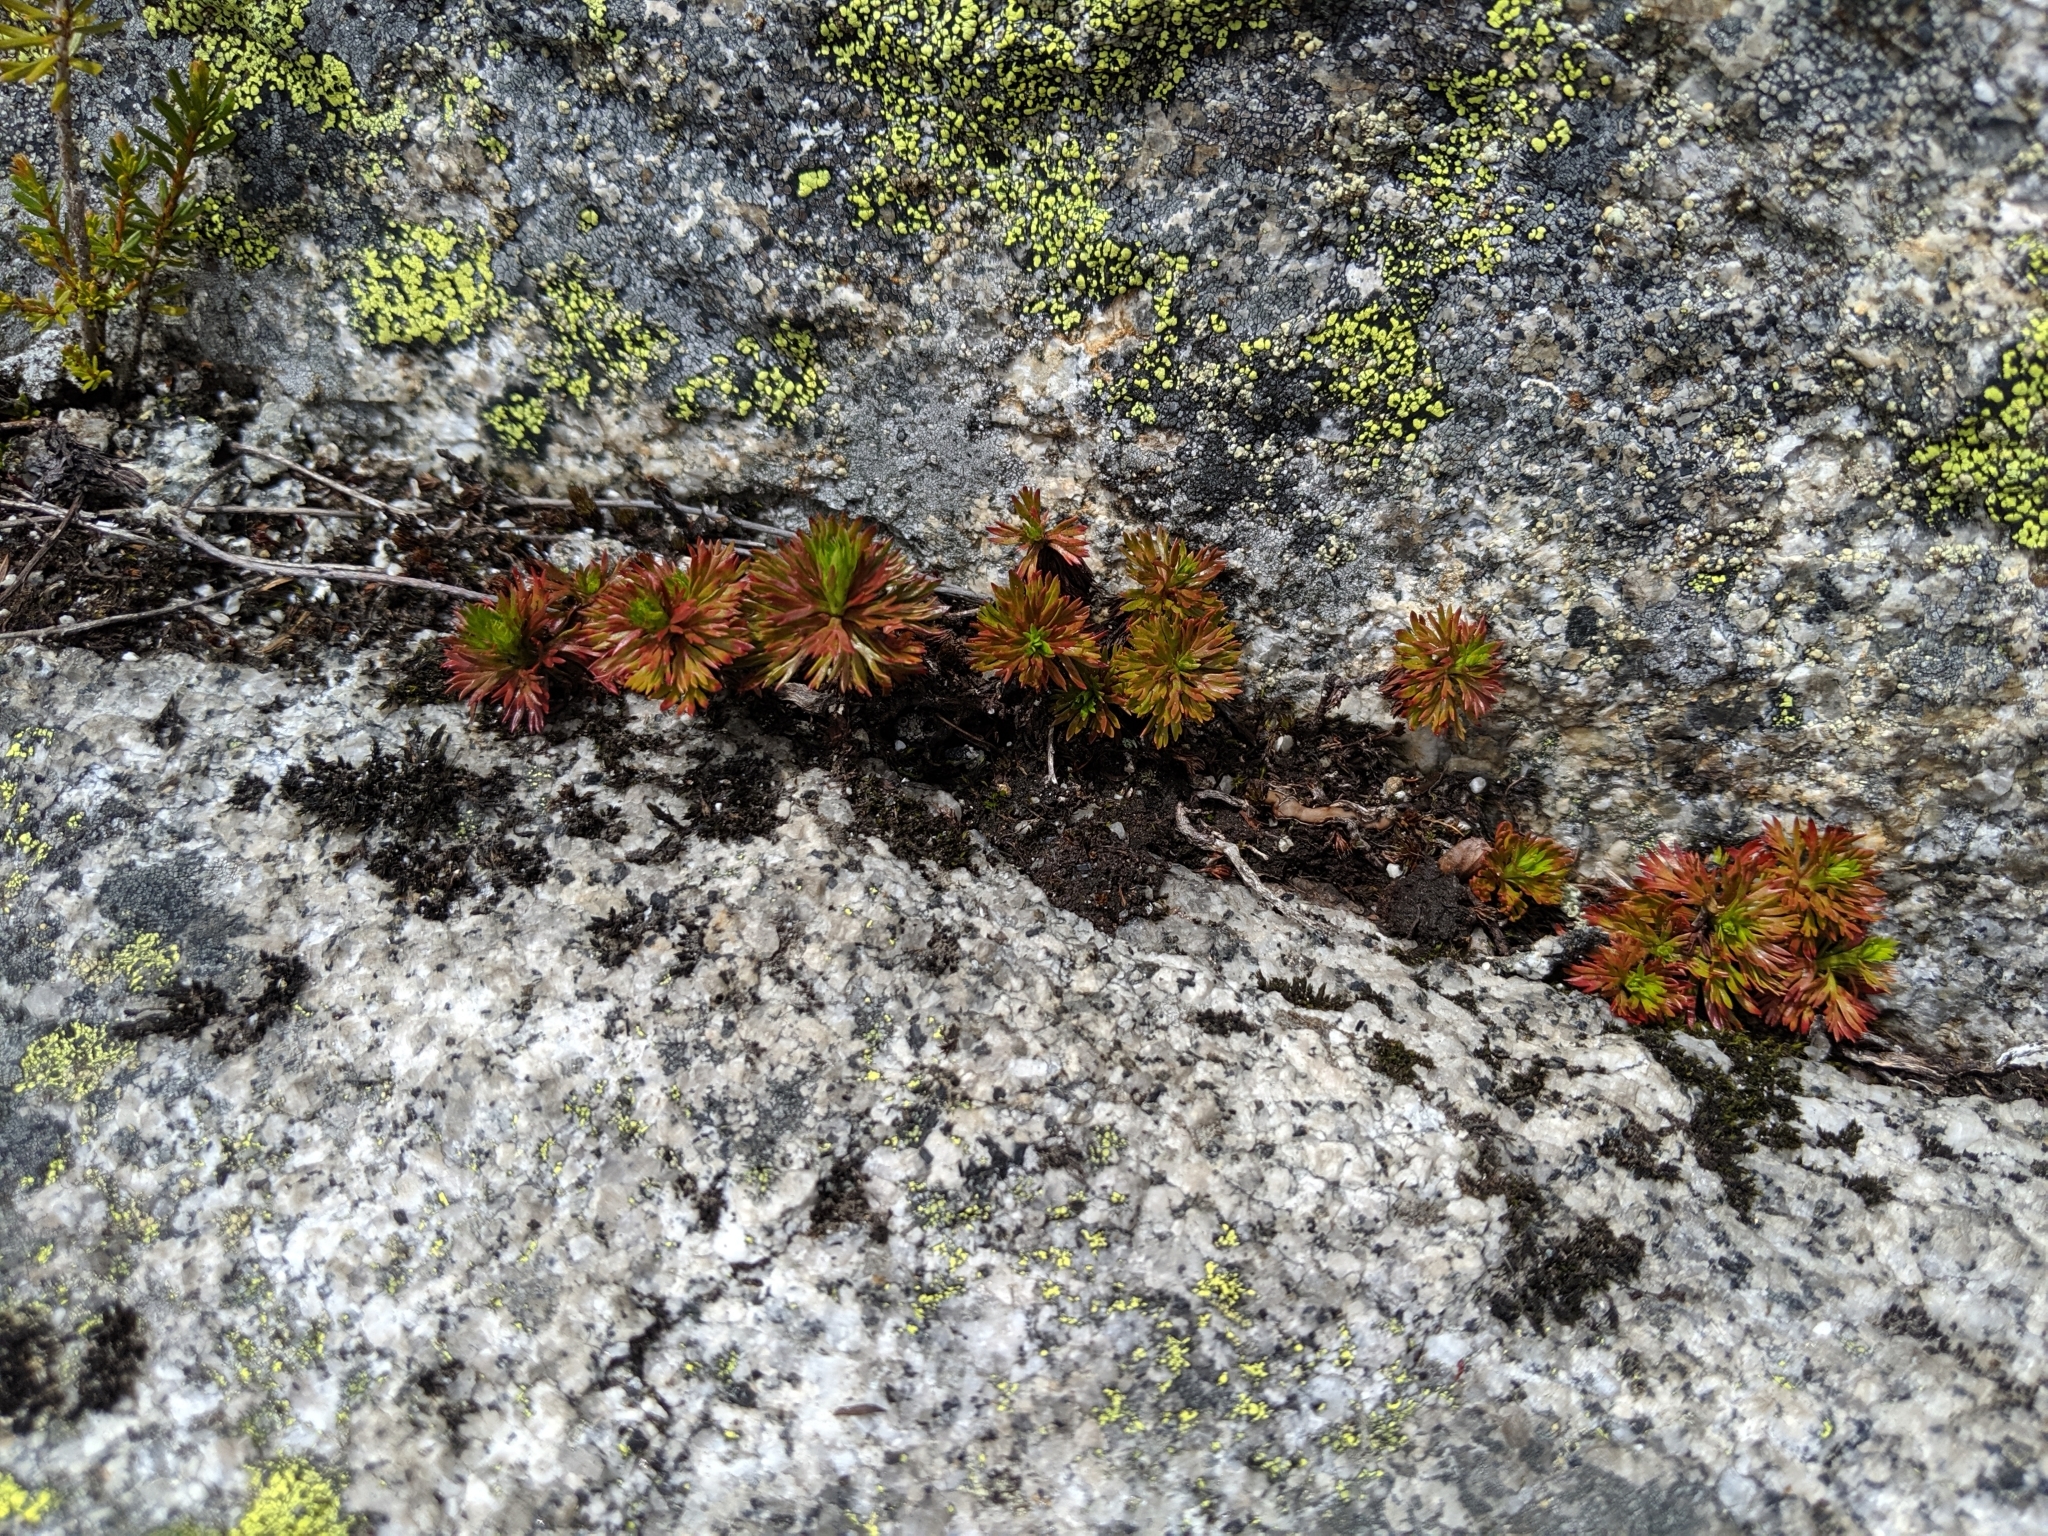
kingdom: Plantae
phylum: Tracheophyta
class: Magnoliopsida
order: Rosales
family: Rosaceae
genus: Luetkea
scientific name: Luetkea pectinata
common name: Partridgefoot
